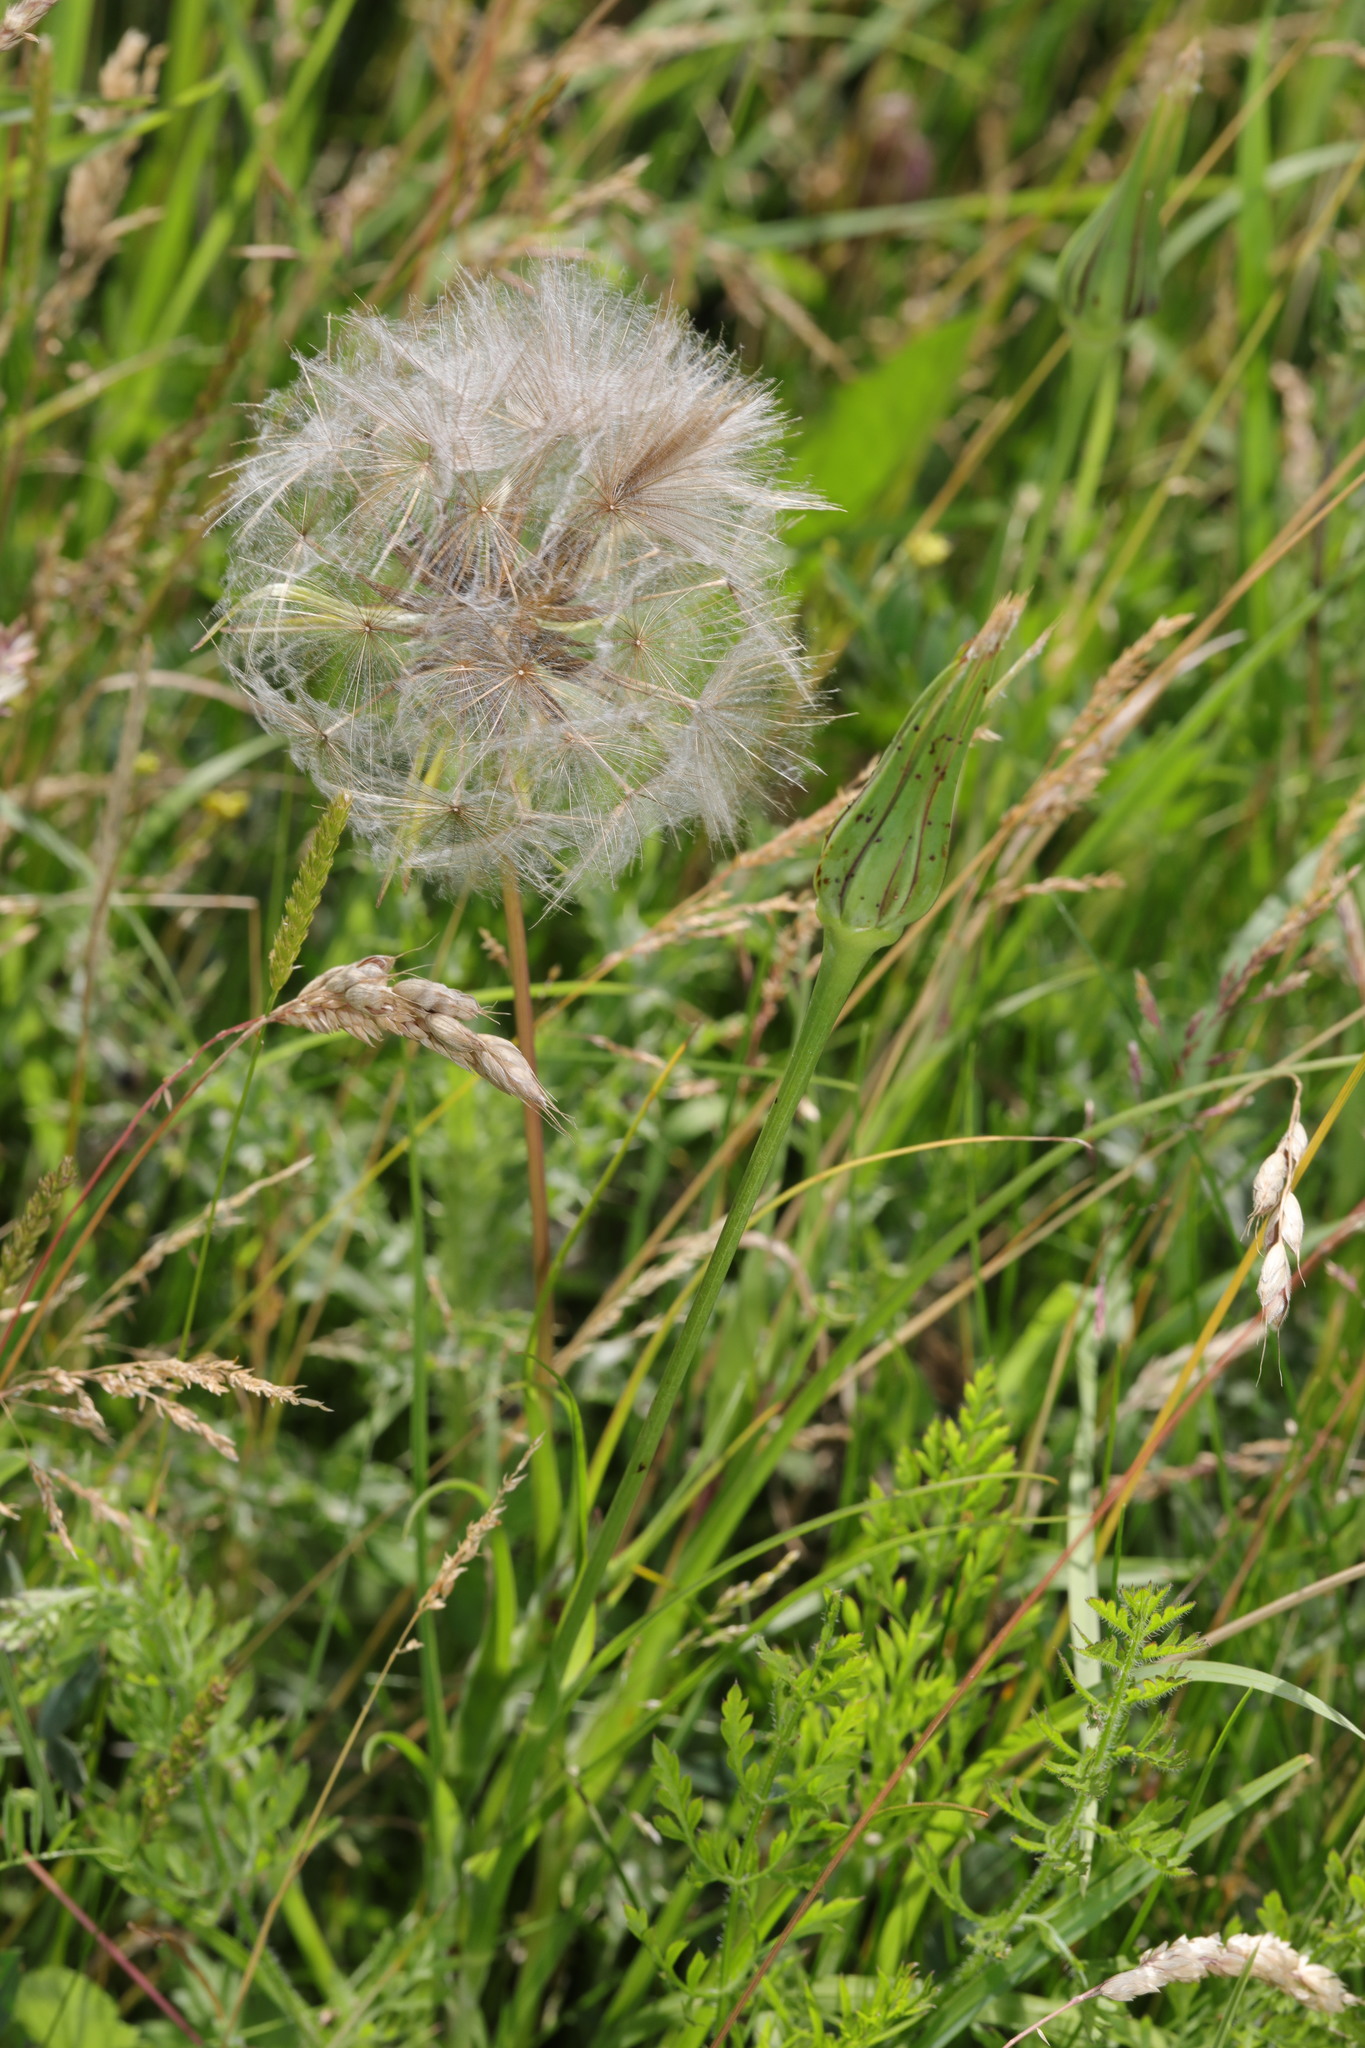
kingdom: Plantae
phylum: Tracheophyta
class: Magnoliopsida
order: Asterales
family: Asteraceae
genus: Tragopogon
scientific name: Tragopogon pratensis
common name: Goat's-beard
